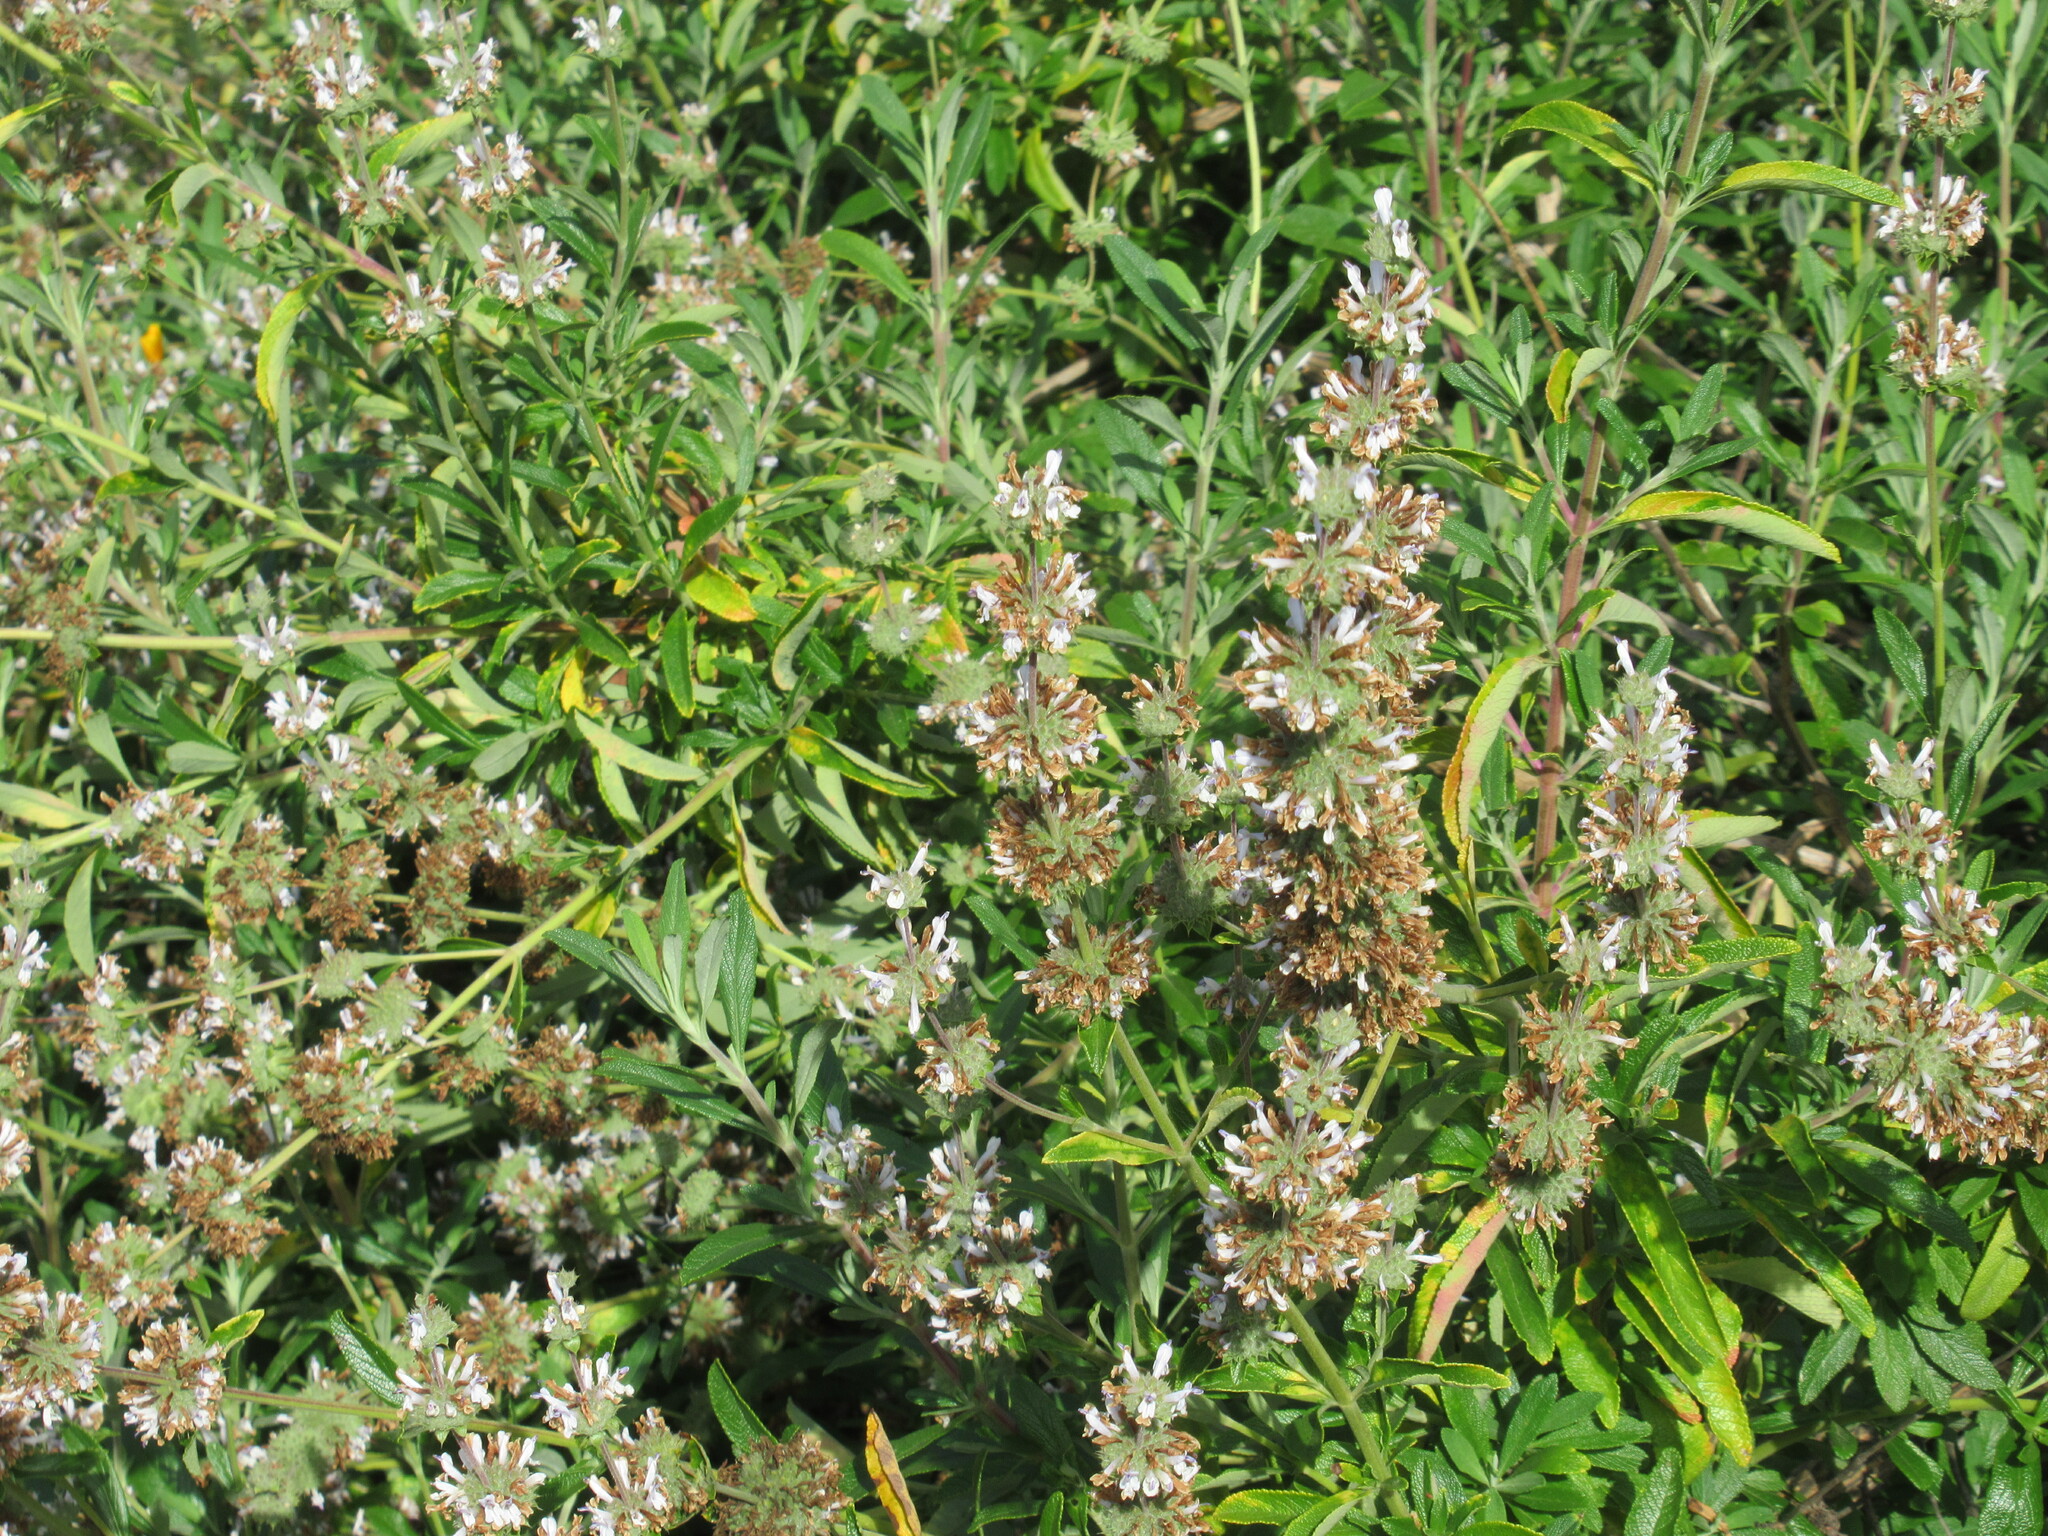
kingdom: Plantae
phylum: Tracheophyta
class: Magnoliopsida
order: Lamiales
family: Lamiaceae
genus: Salvia
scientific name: Salvia mellifera
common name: Black sage
